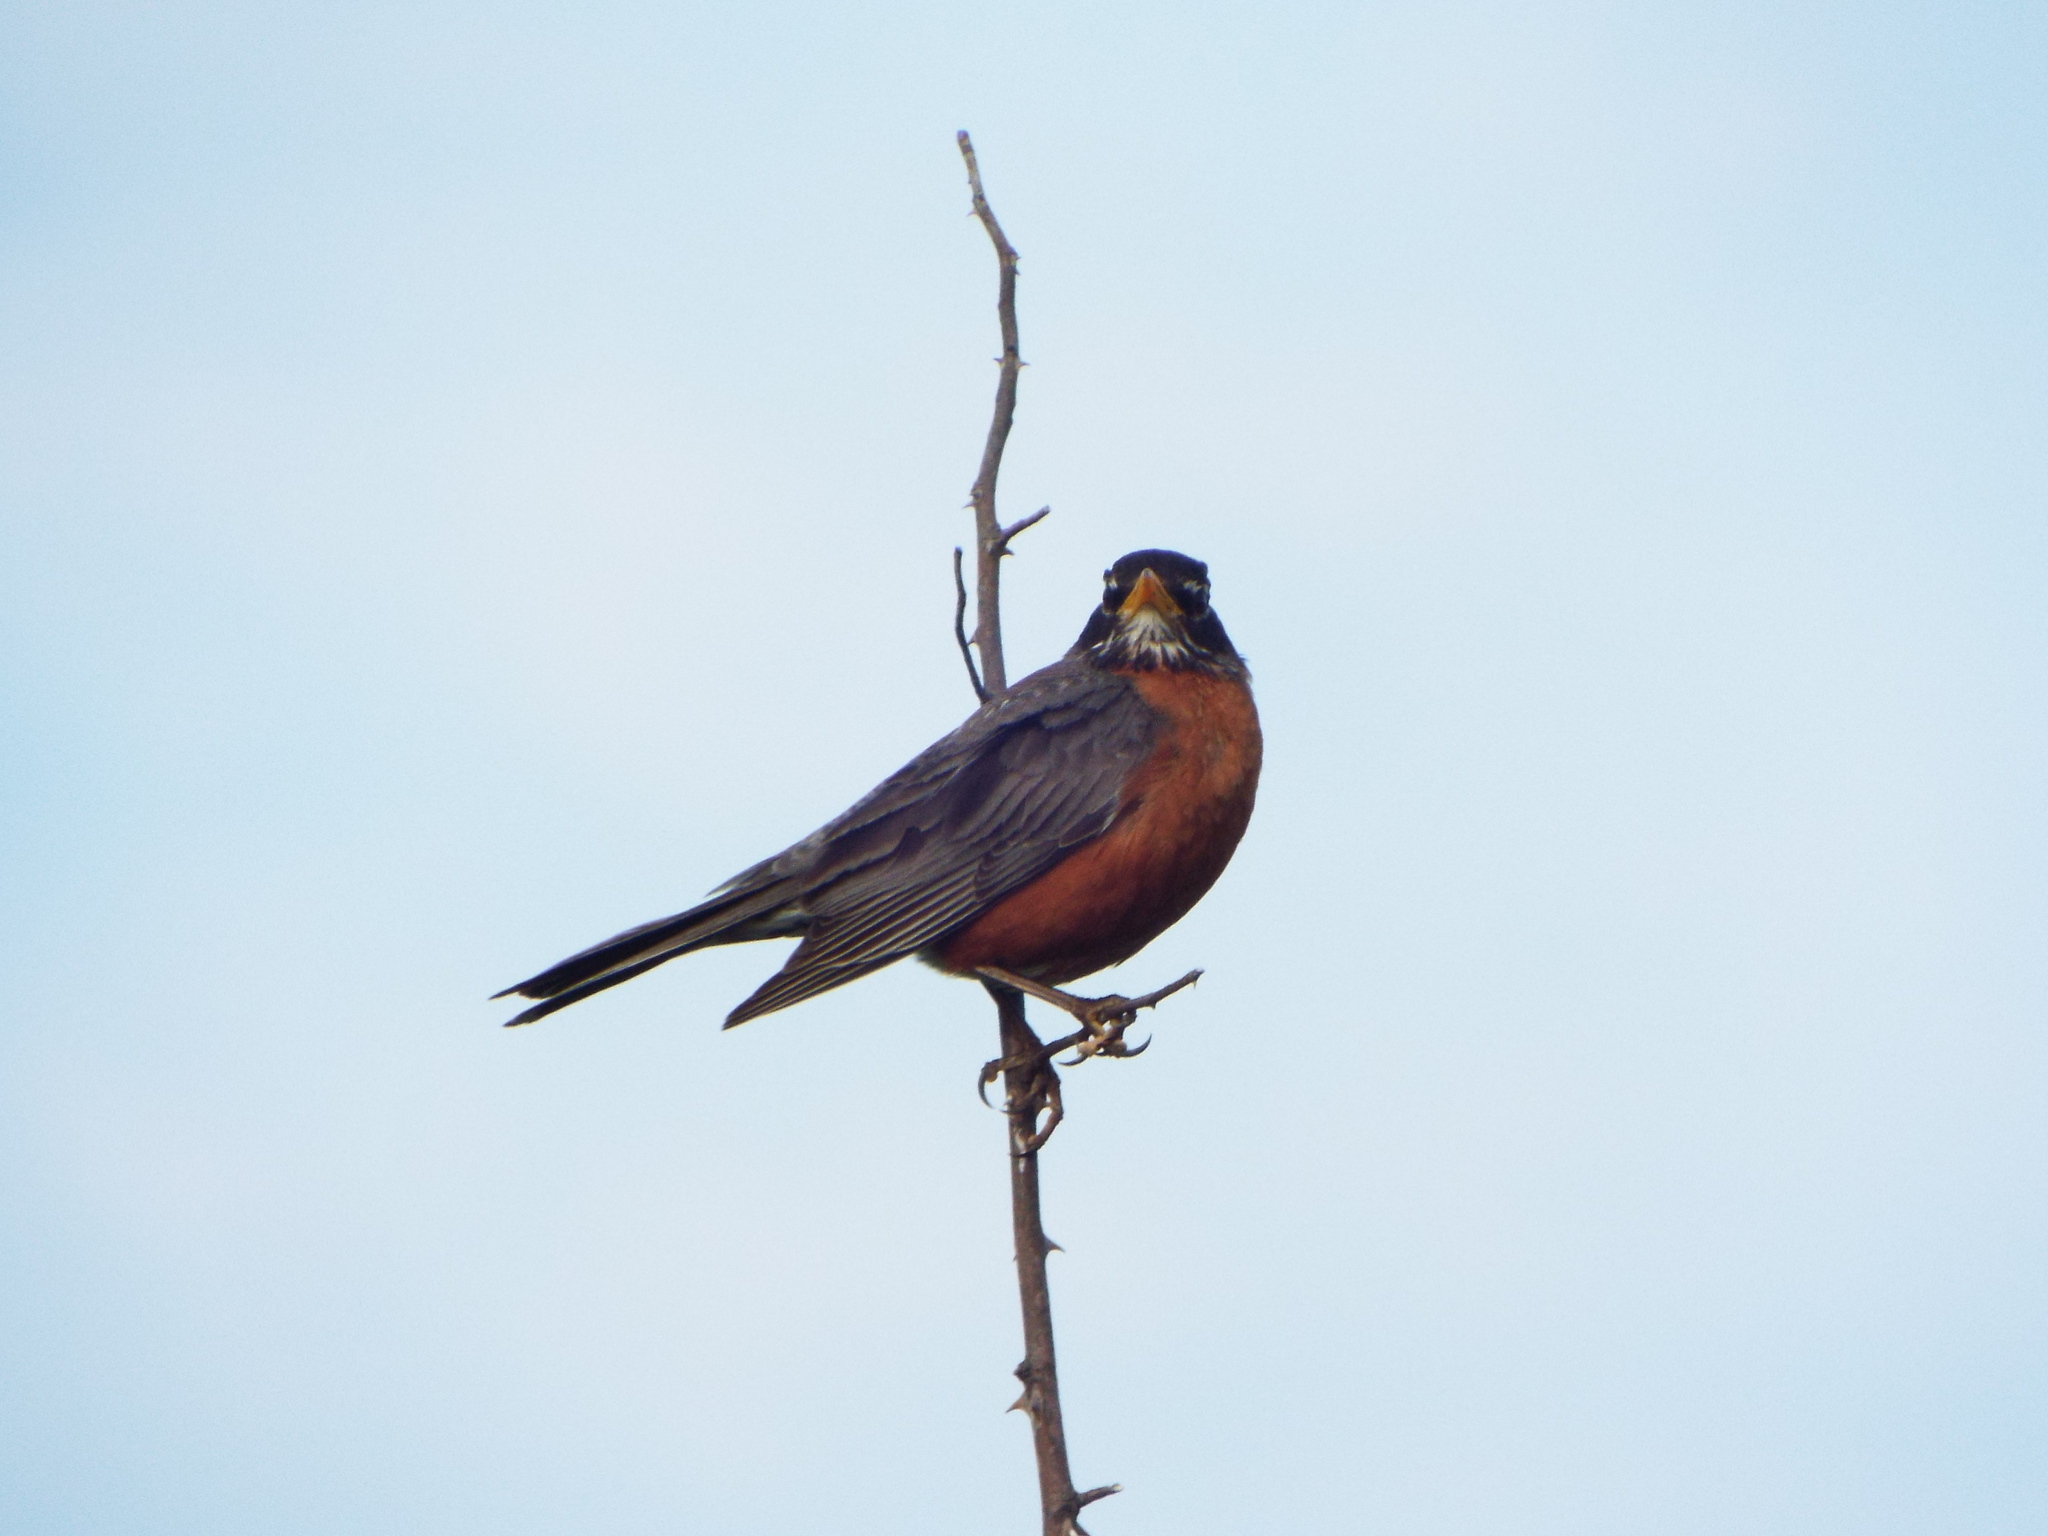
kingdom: Animalia
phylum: Chordata
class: Aves
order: Passeriformes
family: Turdidae
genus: Turdus
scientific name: Turdus migratorius
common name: American robin
